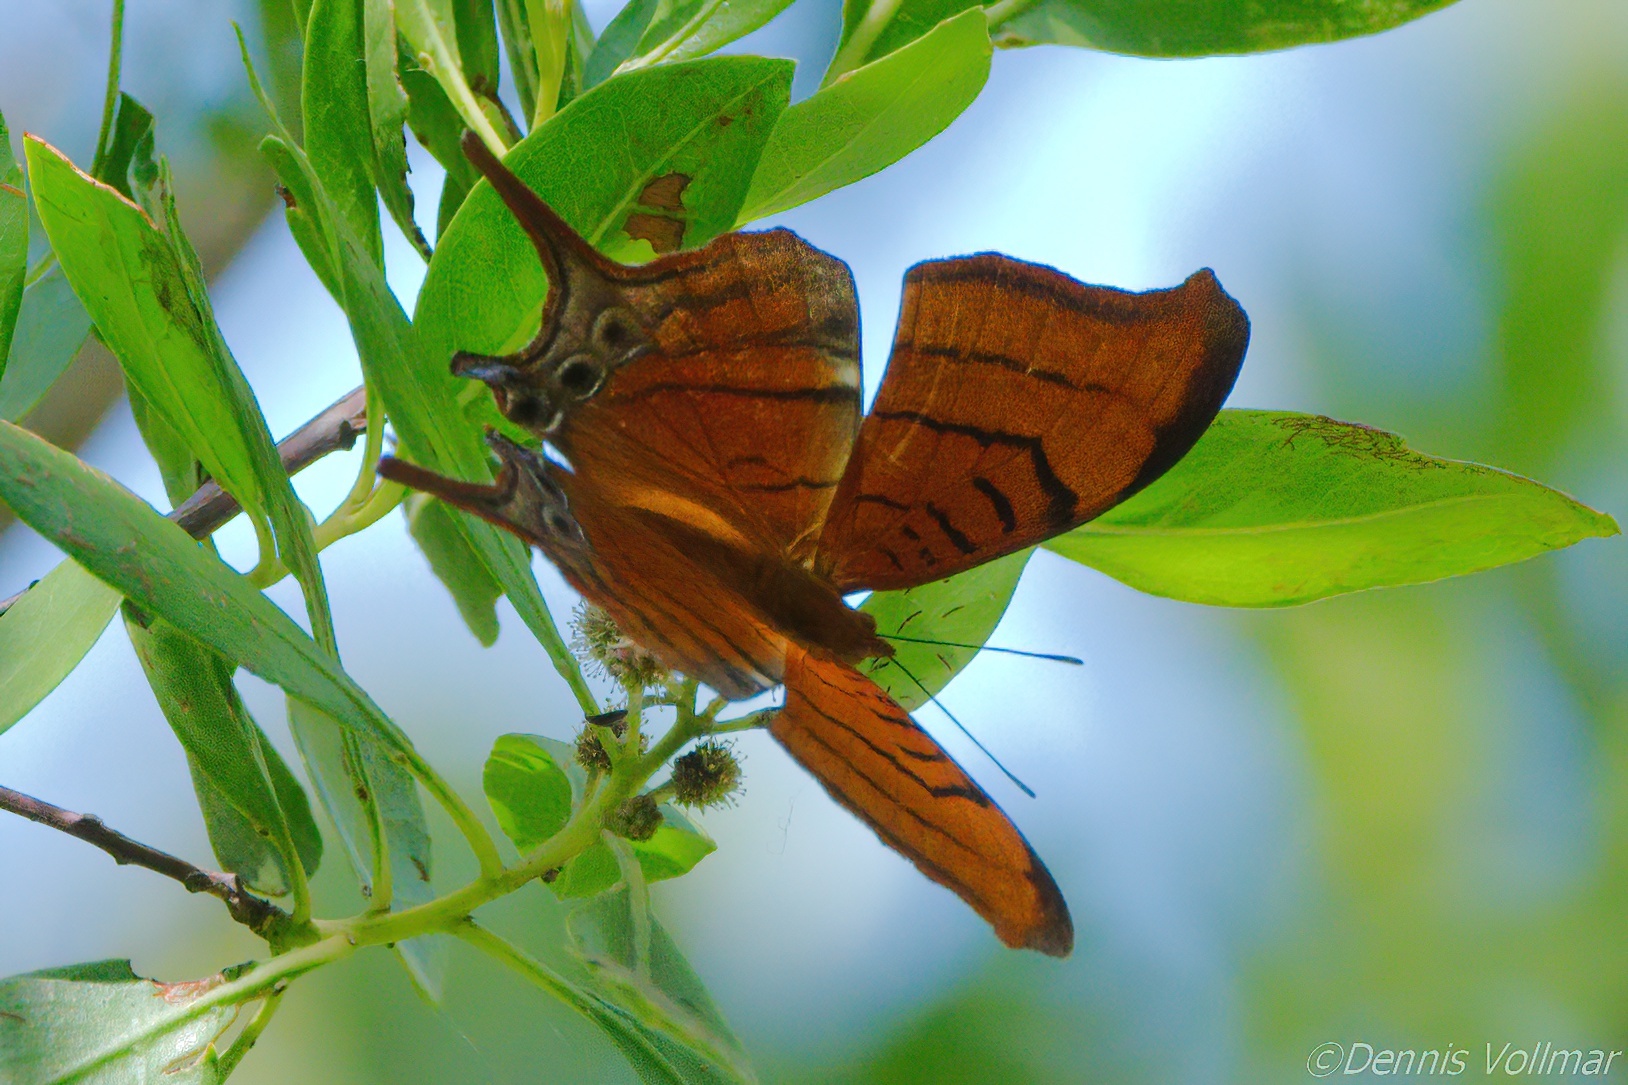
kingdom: Animalia
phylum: Arthropoda
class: Insecta
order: Lepidoptera
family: Nymphalidae
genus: Marpesia
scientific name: Marpesia eleuchea
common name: Antillean daggerwing
